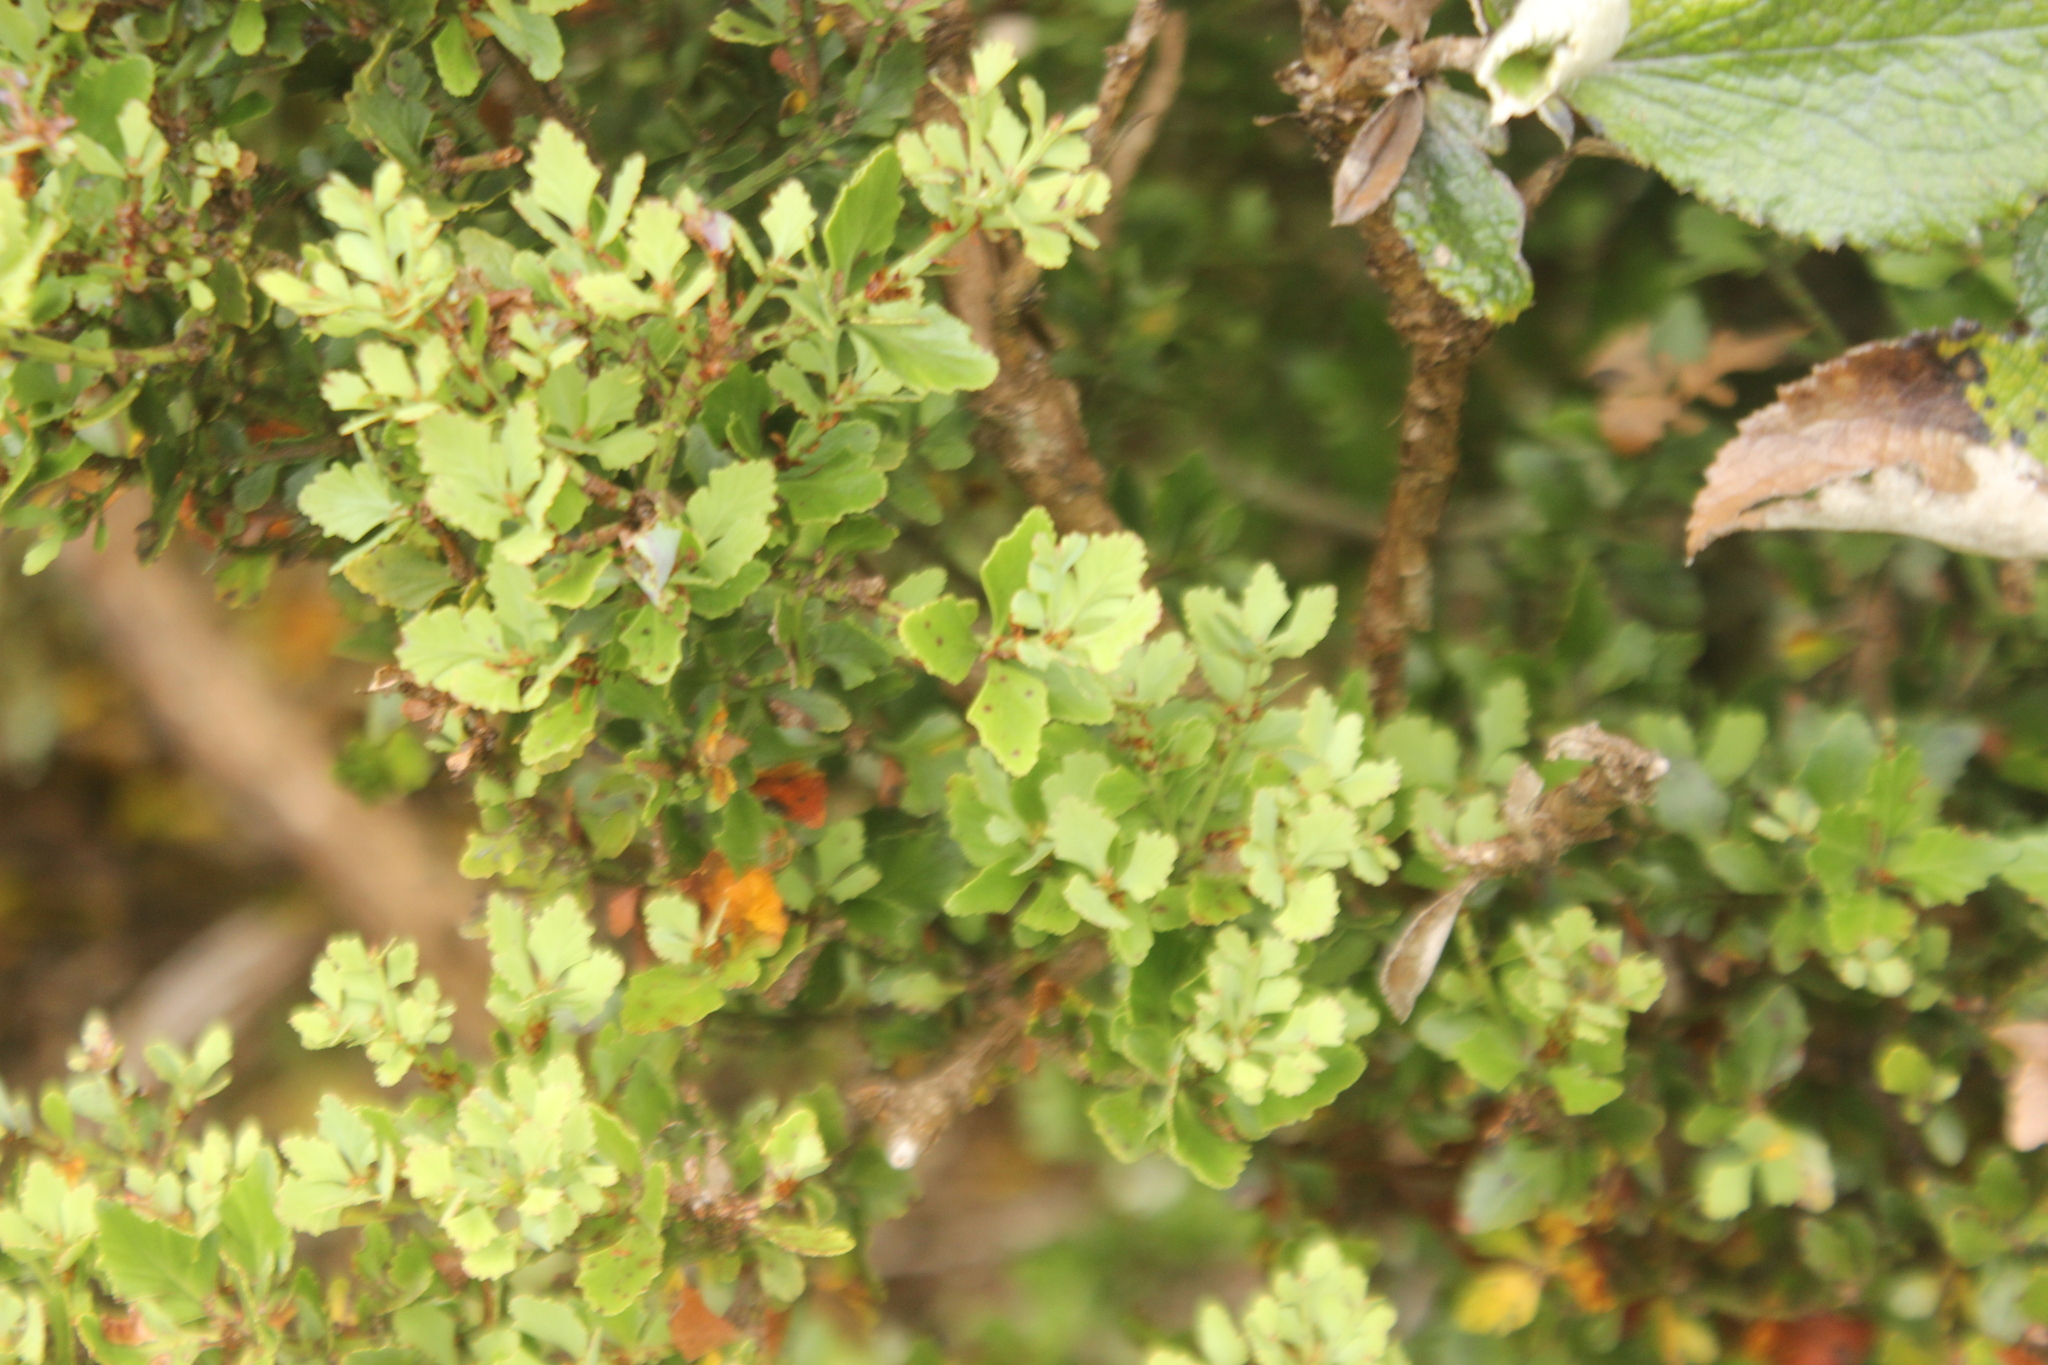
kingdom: Plantae
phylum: Tracheophyta
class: Pinopsida
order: Pinales
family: Phyllocladaceae
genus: Phyllocladus
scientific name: Phyllocladus trichomanoides
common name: Celery pine
